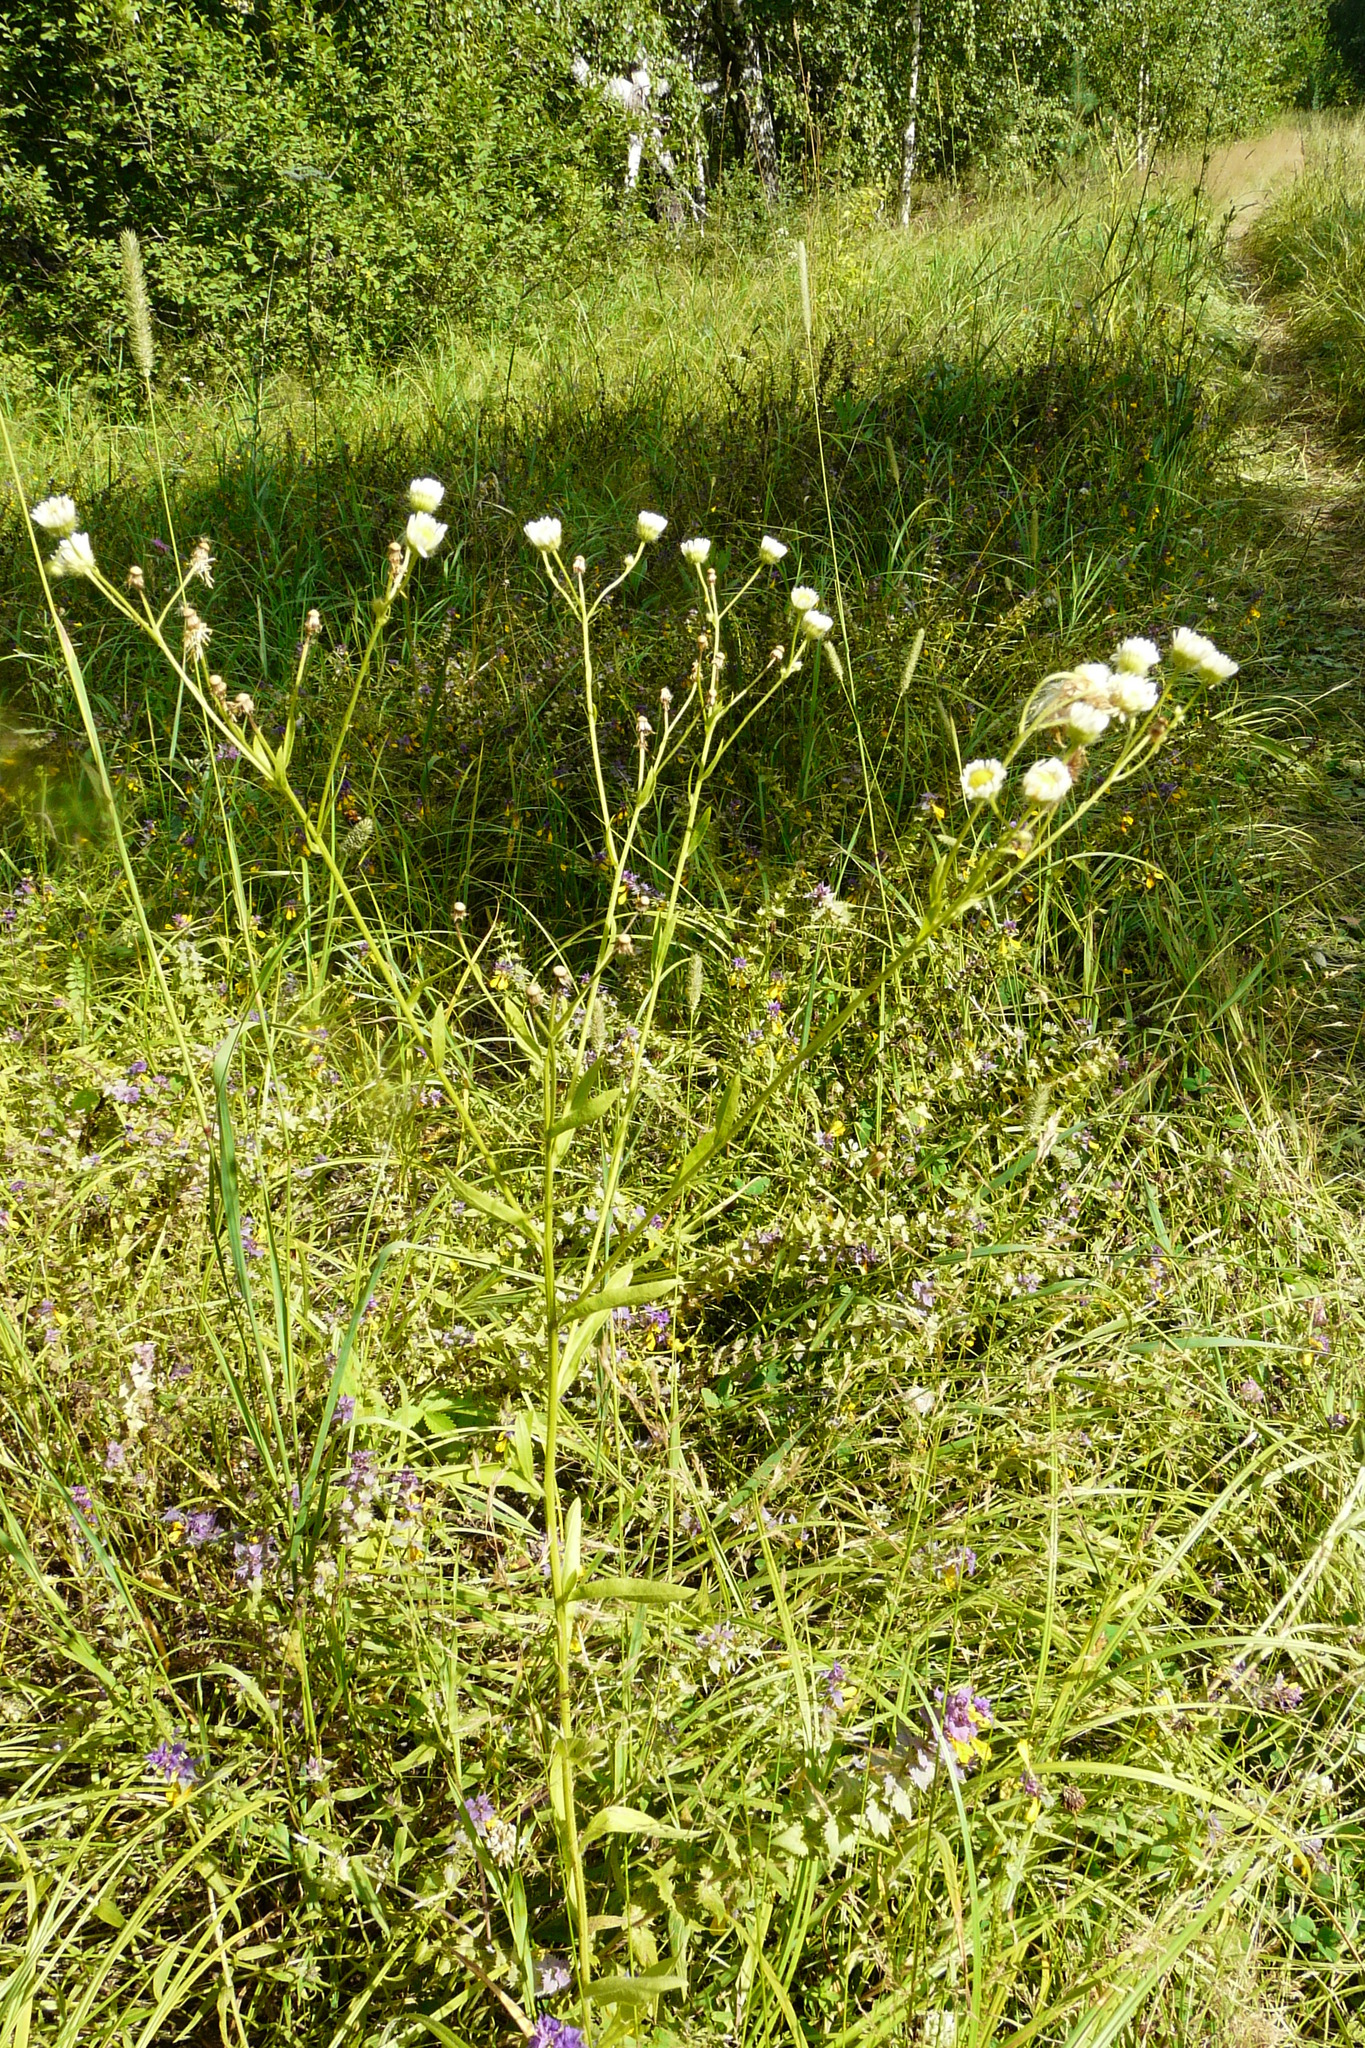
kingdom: Plantae
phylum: Tracheophyta
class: Magnoliopsida
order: Asterales
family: Asteraceae
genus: Erigeron
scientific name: Erigeron annuus
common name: Tall fleabane
